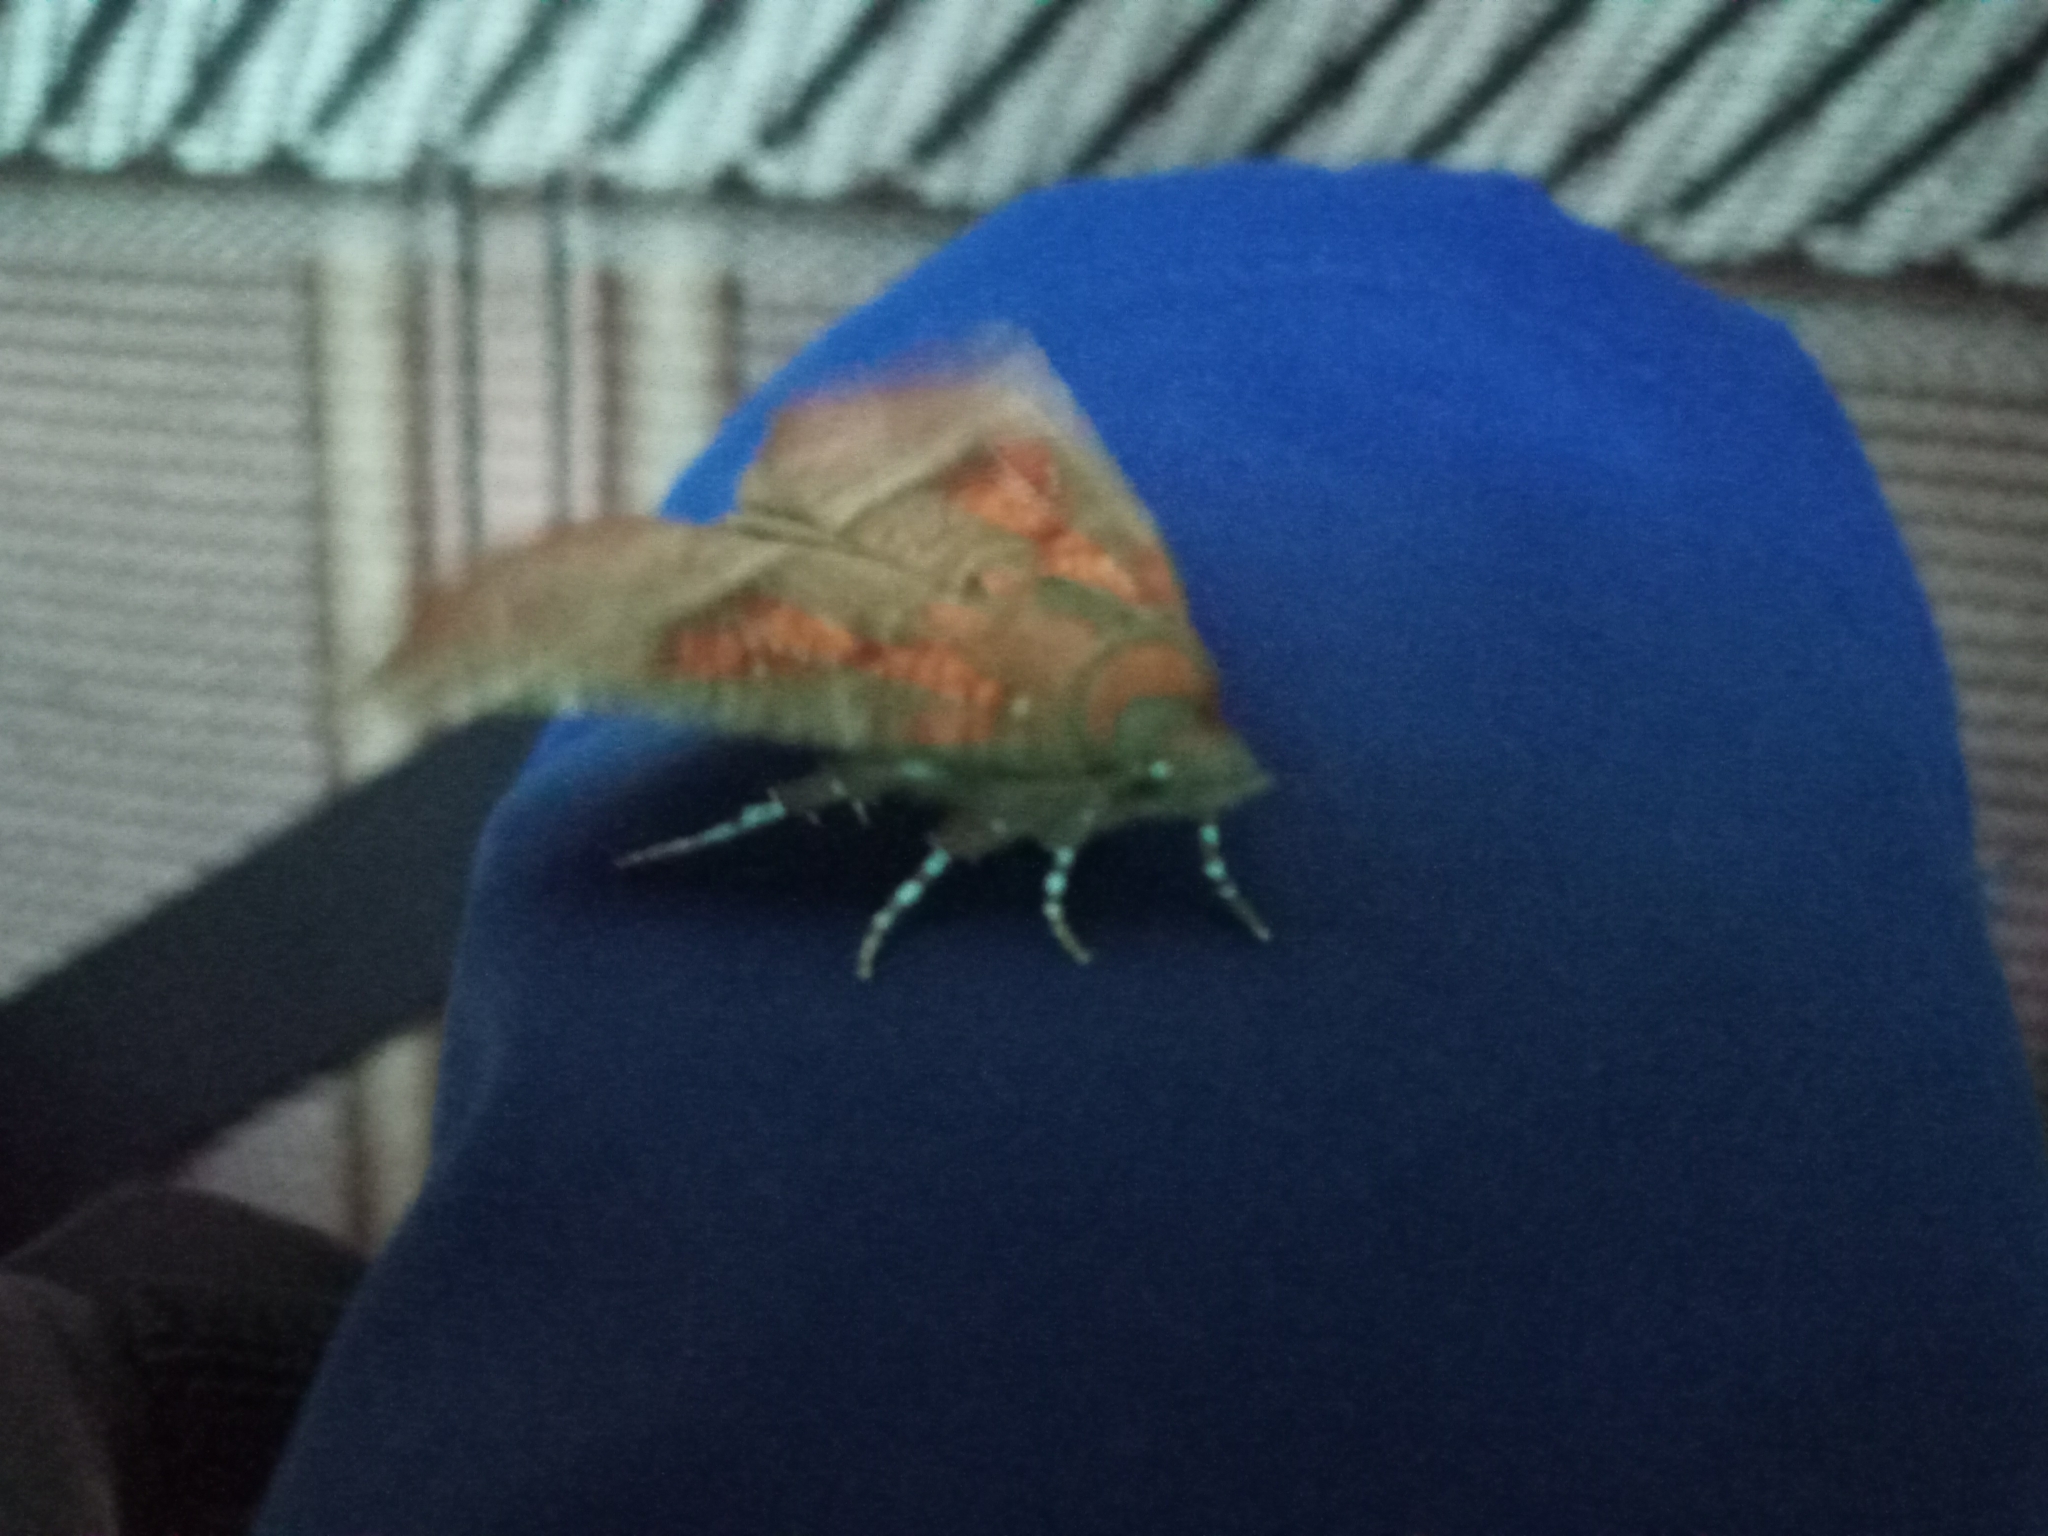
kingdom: Animalia
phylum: Arthropoda
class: Insecta
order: Lepidoptera
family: Erebidae
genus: Scoliopteryx
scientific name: Scoliopteryx libatrix
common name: Herald
